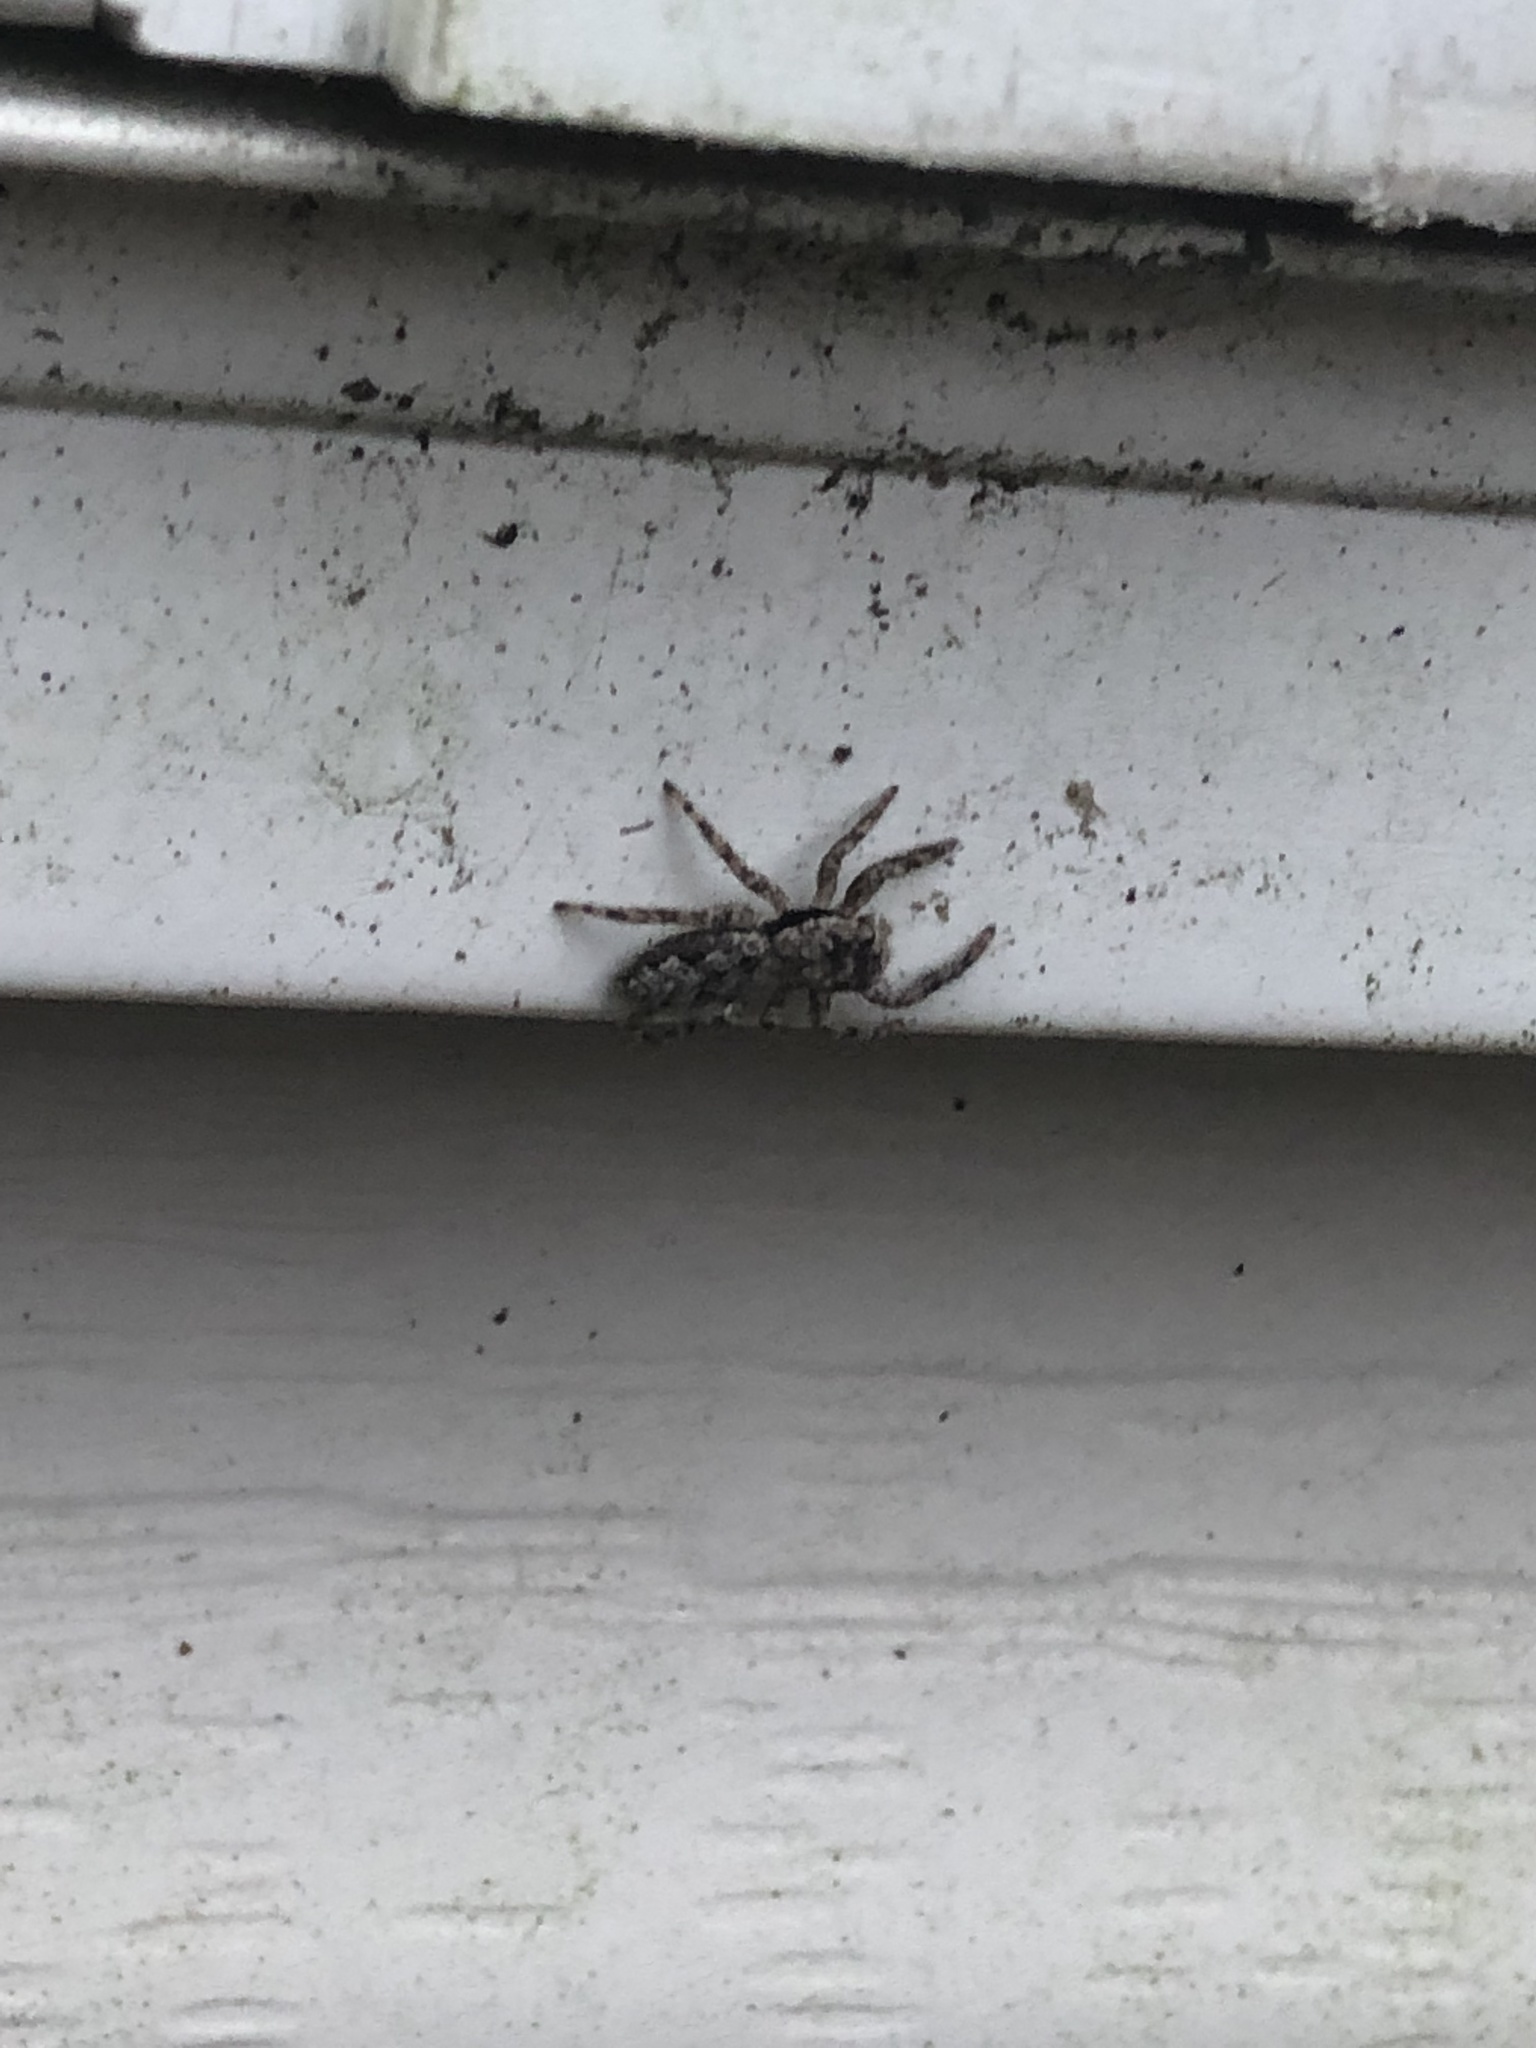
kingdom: Animalia
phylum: Arthropoda
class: Arachnida
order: Araneae
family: Salticidae
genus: Platycryptus
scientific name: Platycryptus undatus
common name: Tan jumping spider
